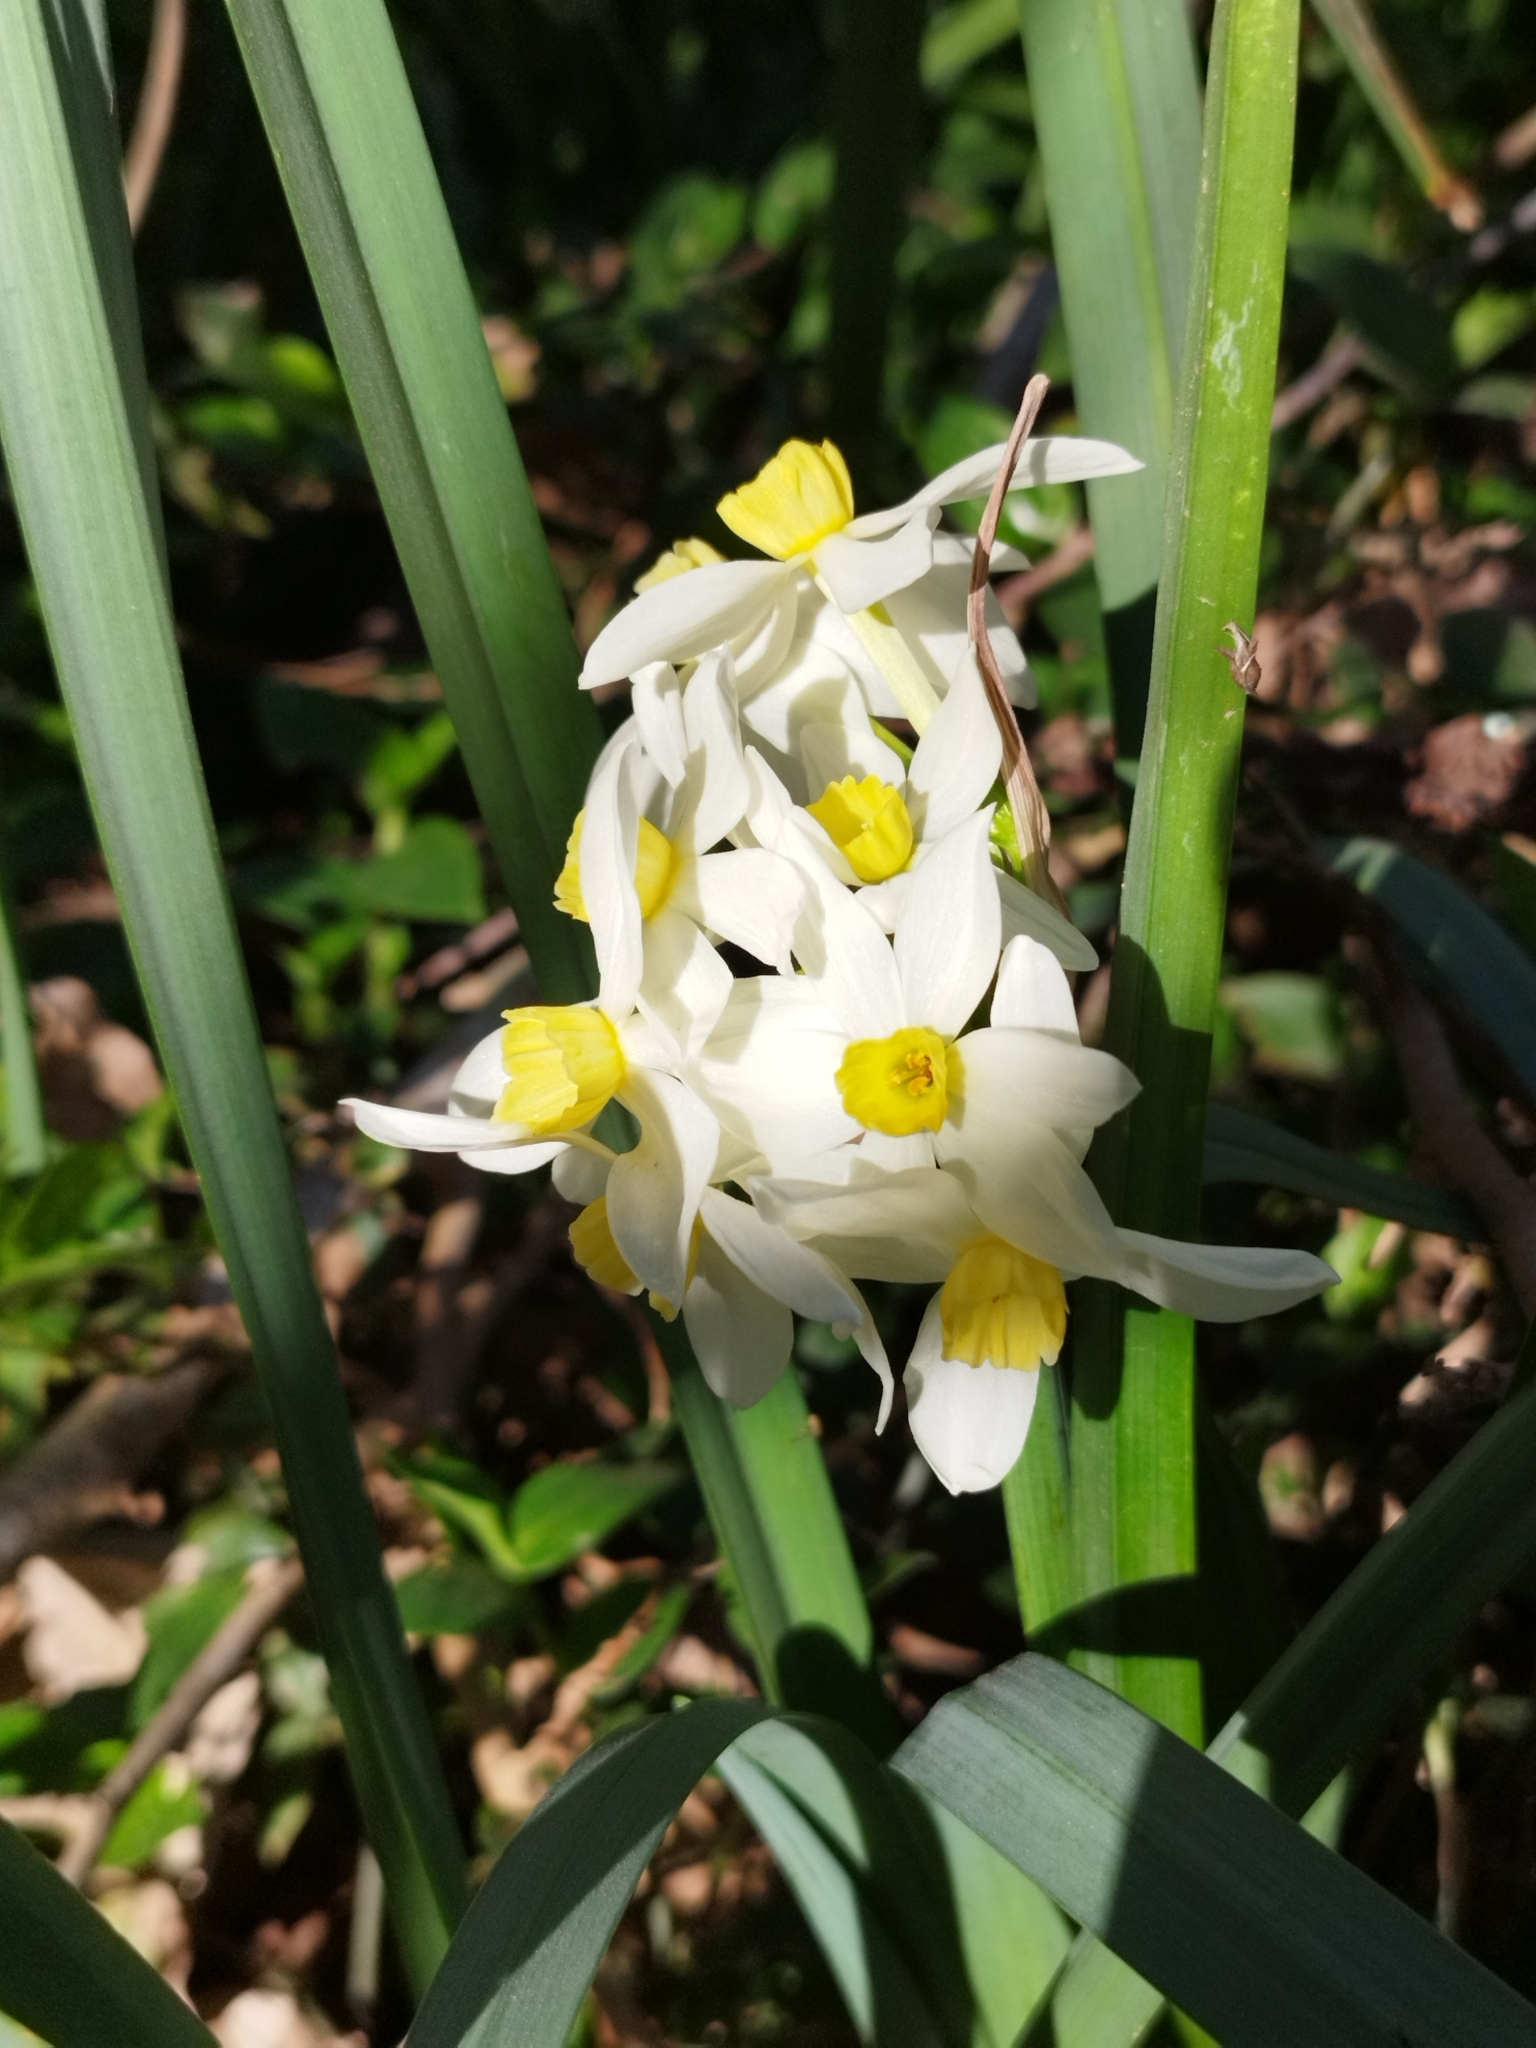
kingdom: Plantae
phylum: Tracheophyta
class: Liliopsida
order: Asparagales
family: Amaryllidaceae
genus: Narcissus
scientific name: Narcissus tazetta
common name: Bunch-flowered daffodil
